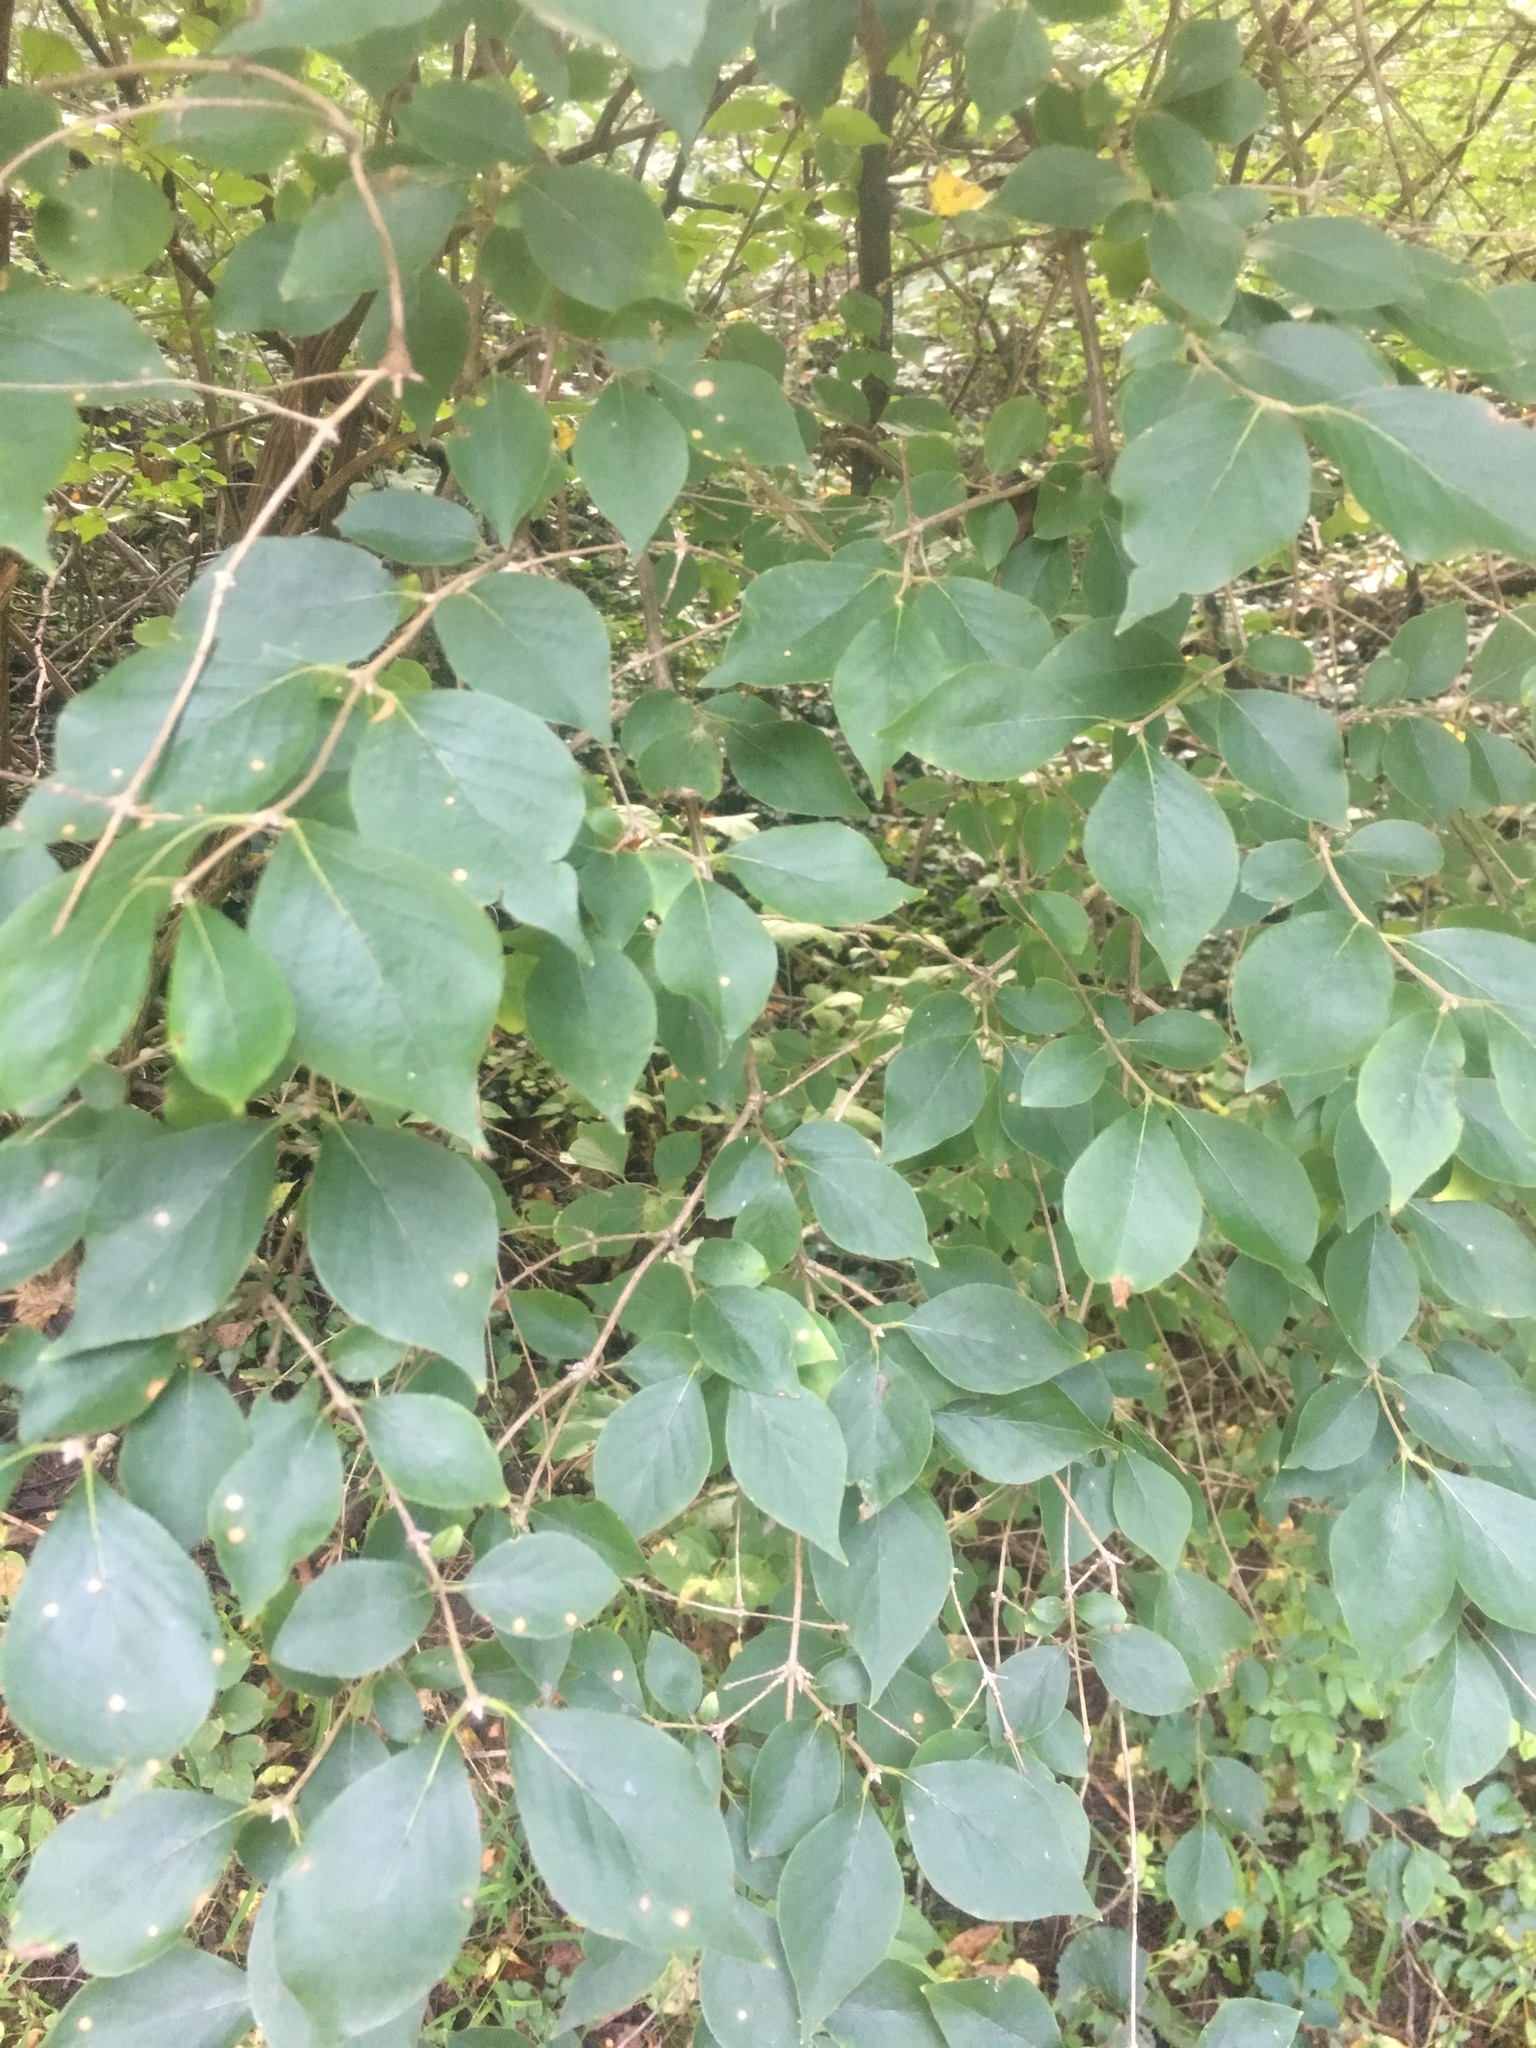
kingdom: Plantae
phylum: Tracheophyta
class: Magnoliopsida
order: Dipsacales
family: Caprifoliaceae
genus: Lonicera
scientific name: Lonicera maackii
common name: Amur honeysuckle
